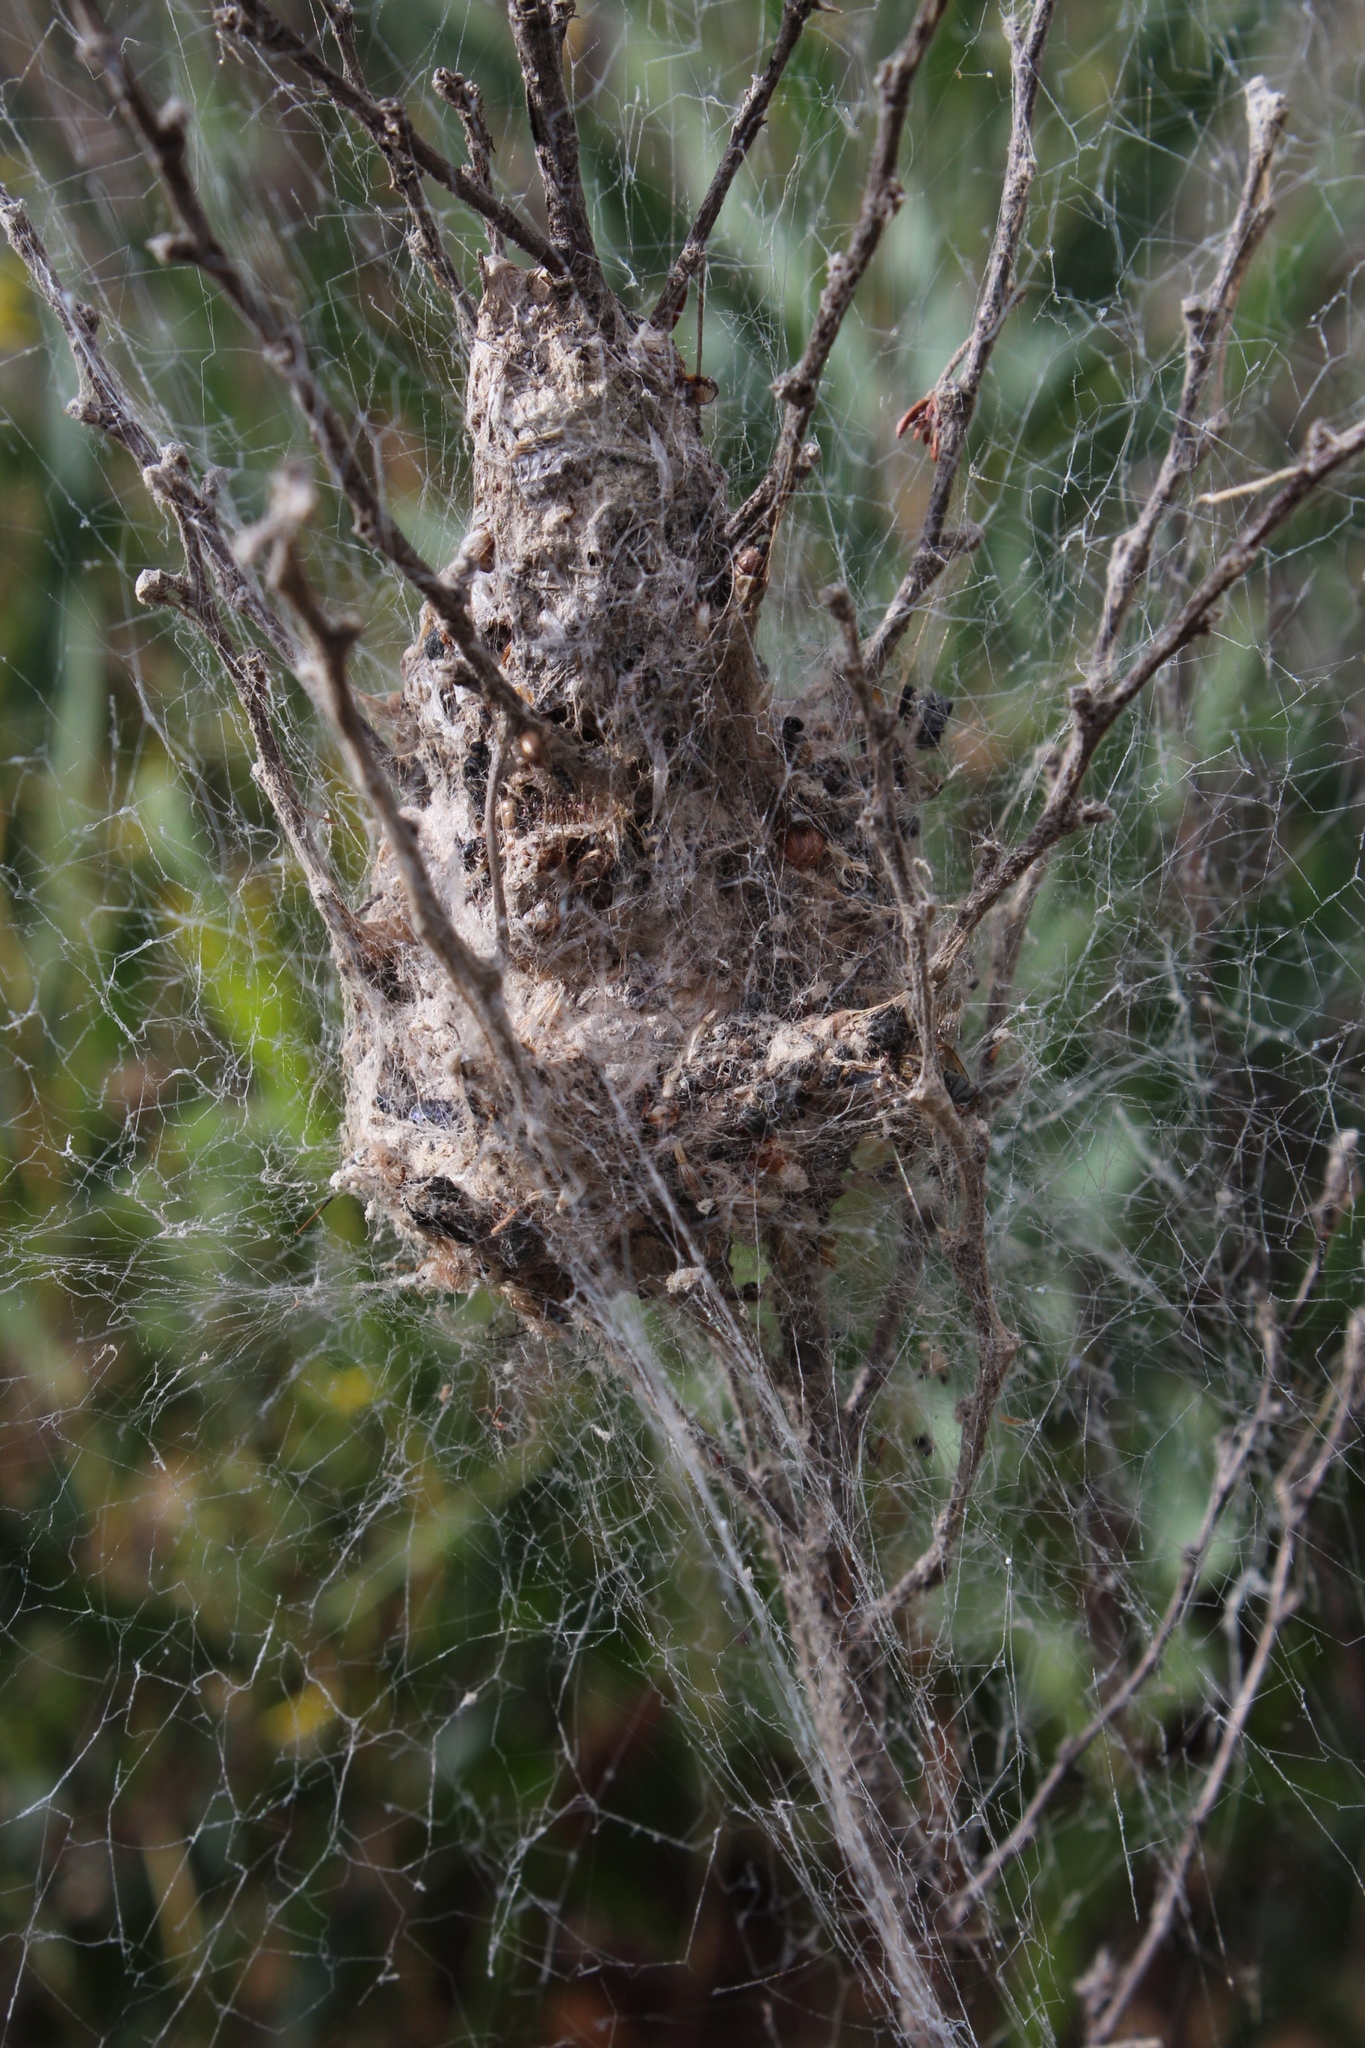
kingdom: Animalia
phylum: Arthropoda
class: Arachnida
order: Araneae
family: Eresidae
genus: Stegodyphus
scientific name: Stegodyphus
